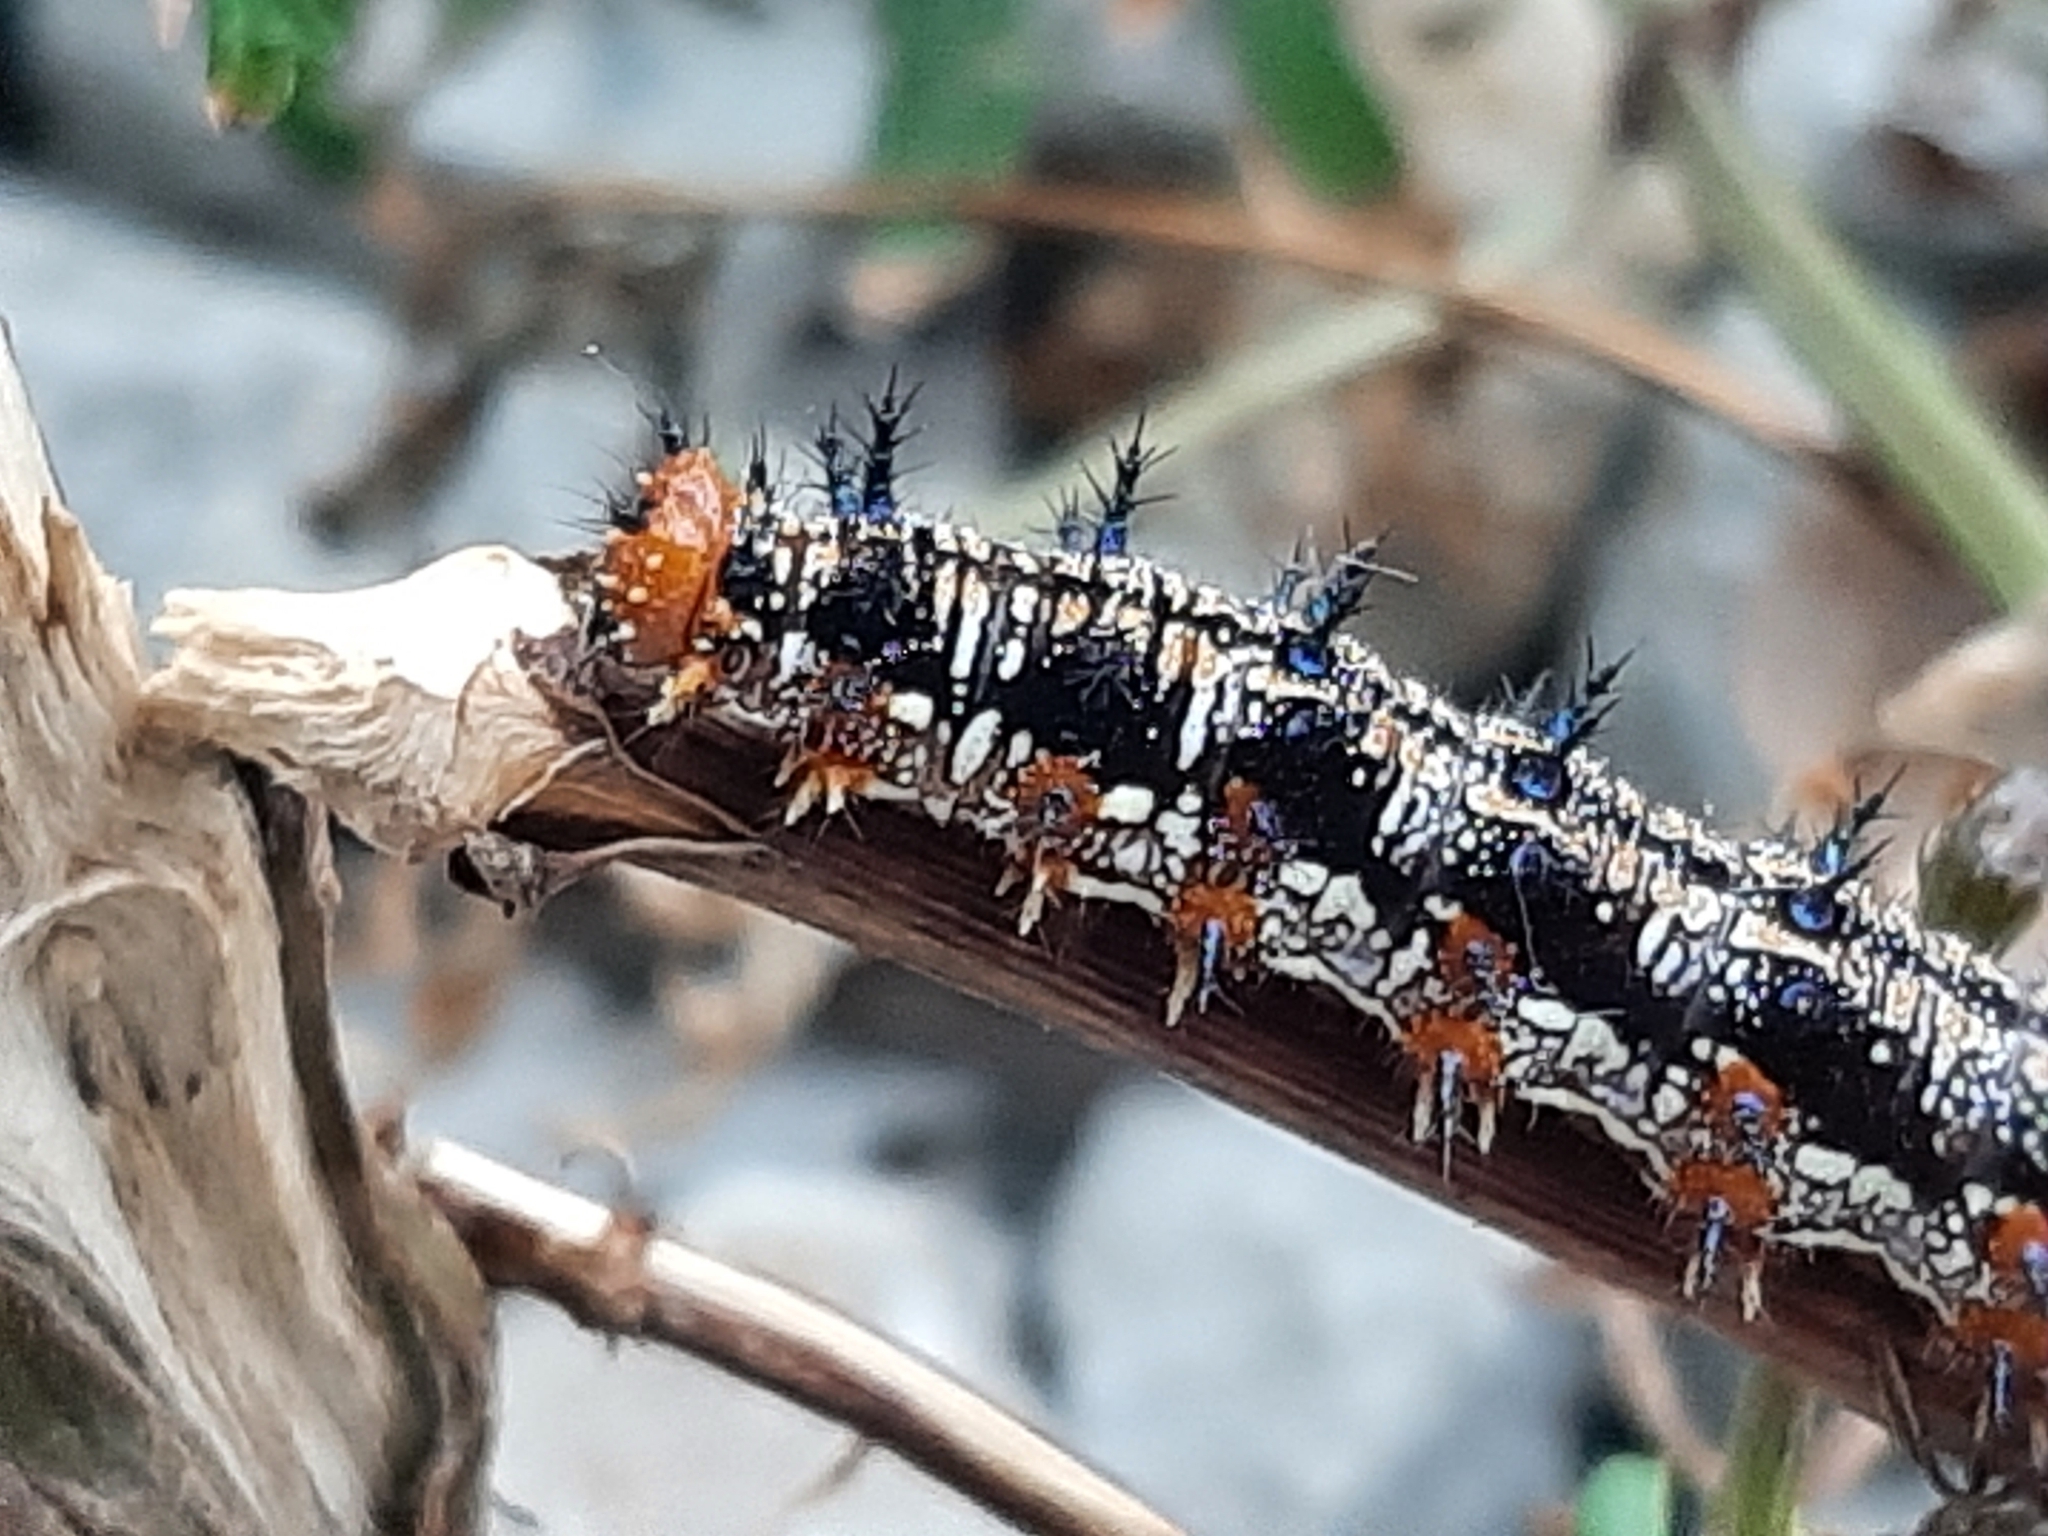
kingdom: Animalia
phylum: Arthropoda
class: Insecta
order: Lepidoptera
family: Nymphalidae
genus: Junonia
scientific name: Junonia coenia
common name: Common buckeye
